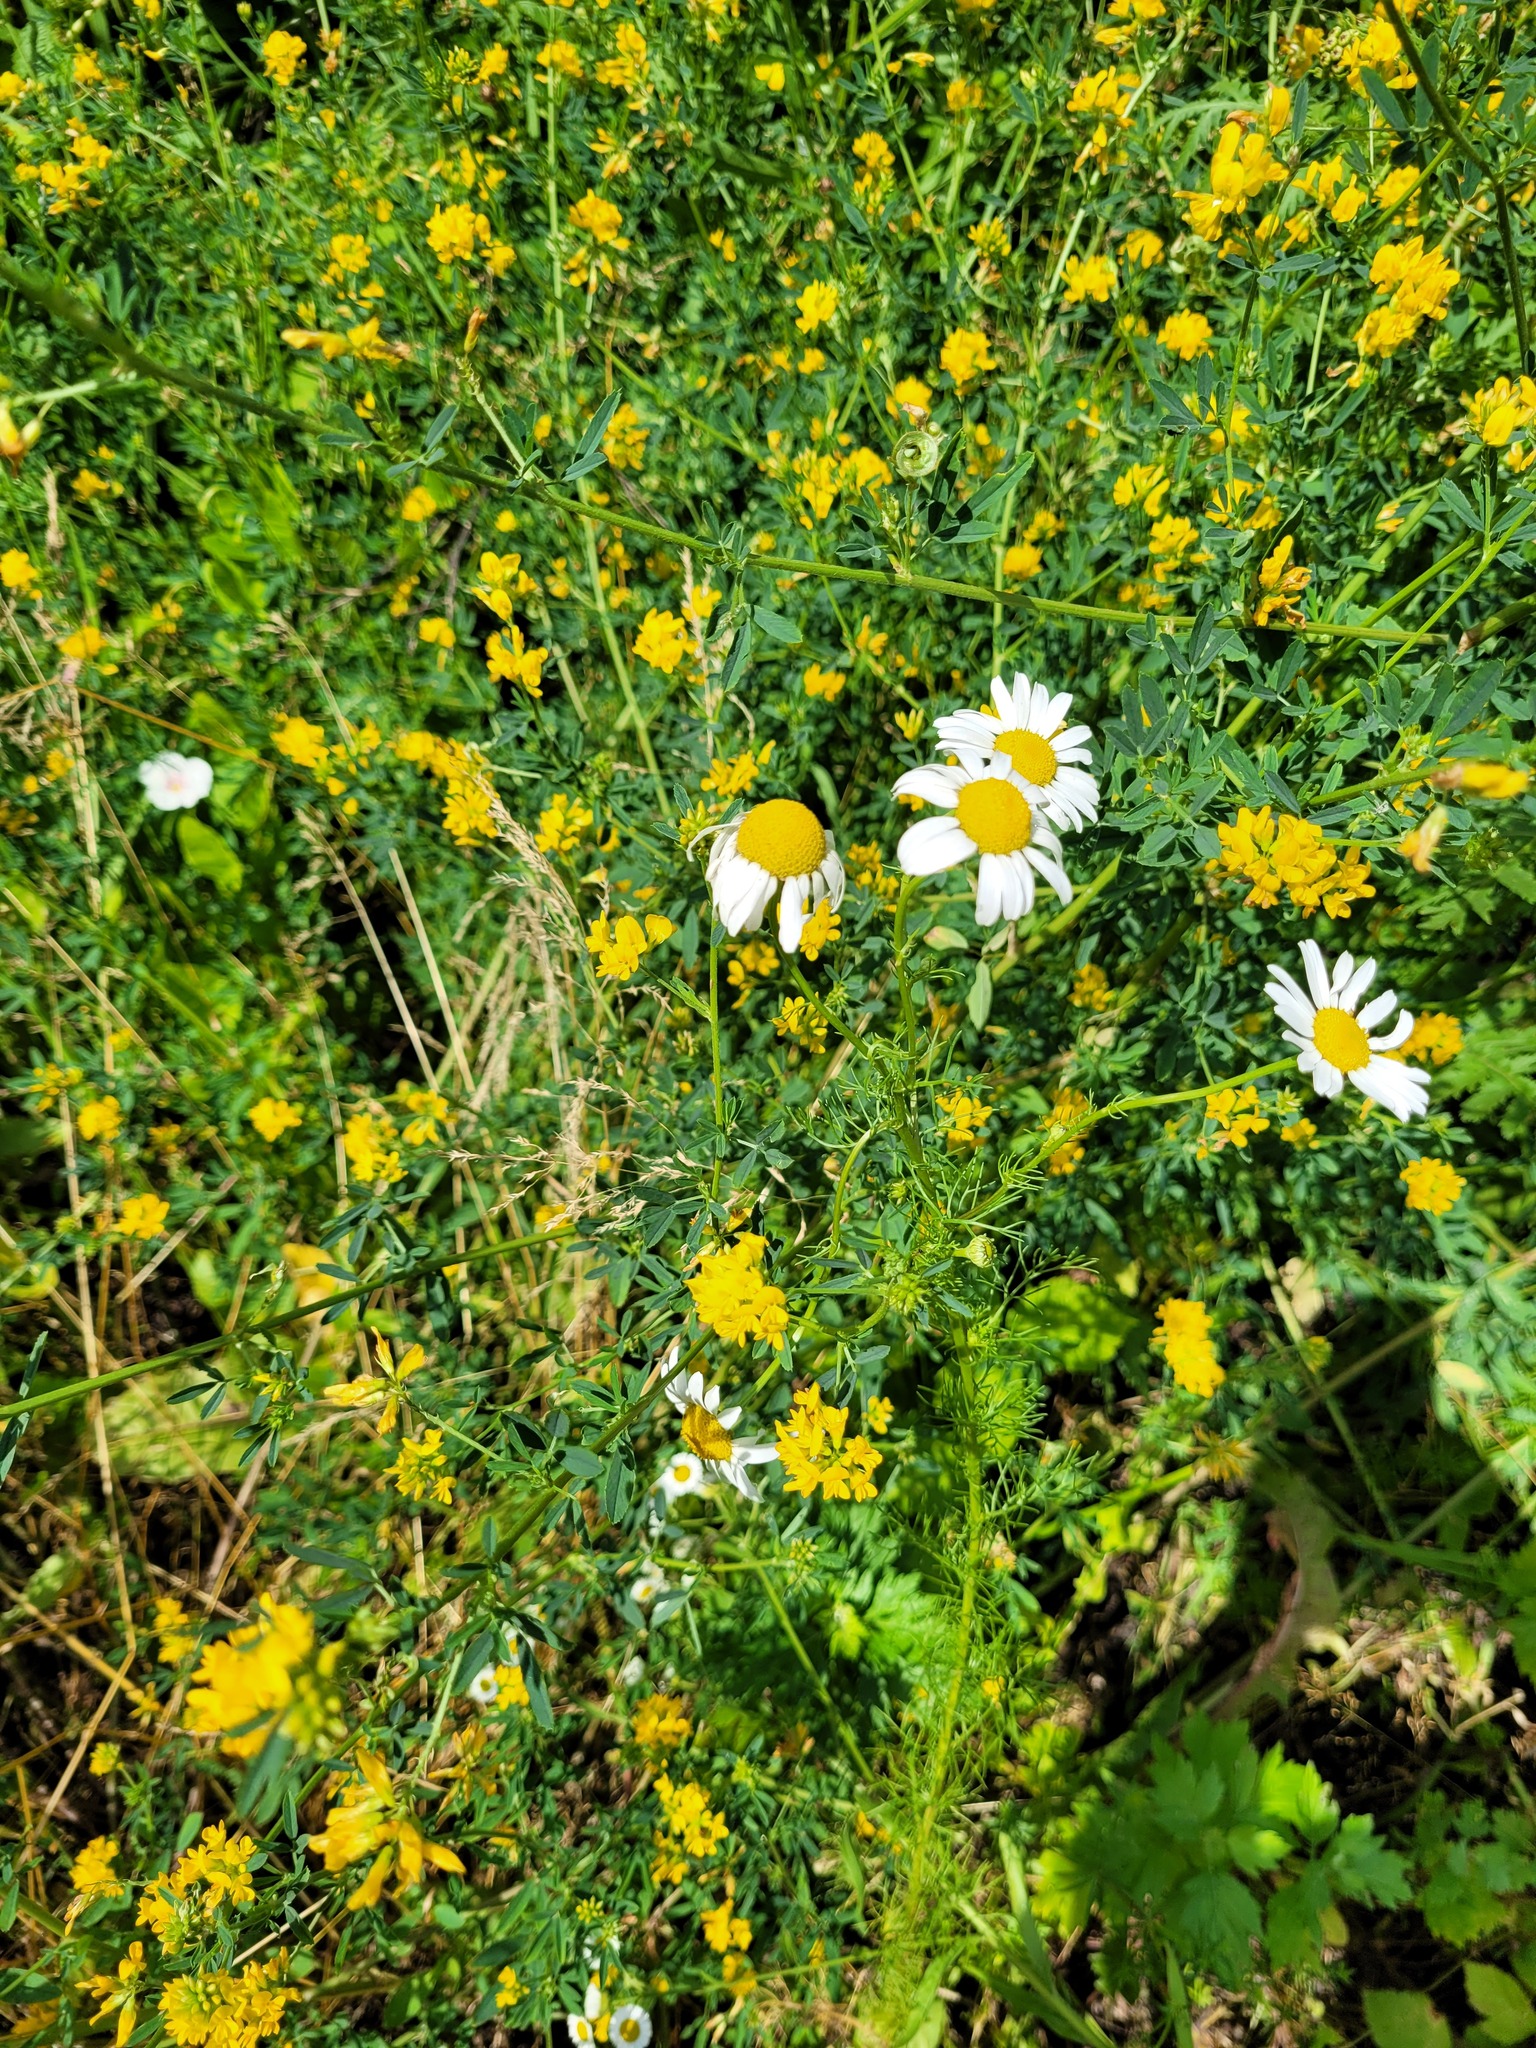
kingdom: Plantae
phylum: Tracheophyta
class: Magnoliopsida
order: Fabales
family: Fabaceae
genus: Medicago
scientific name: Medicago falcata
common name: Sickle medick
